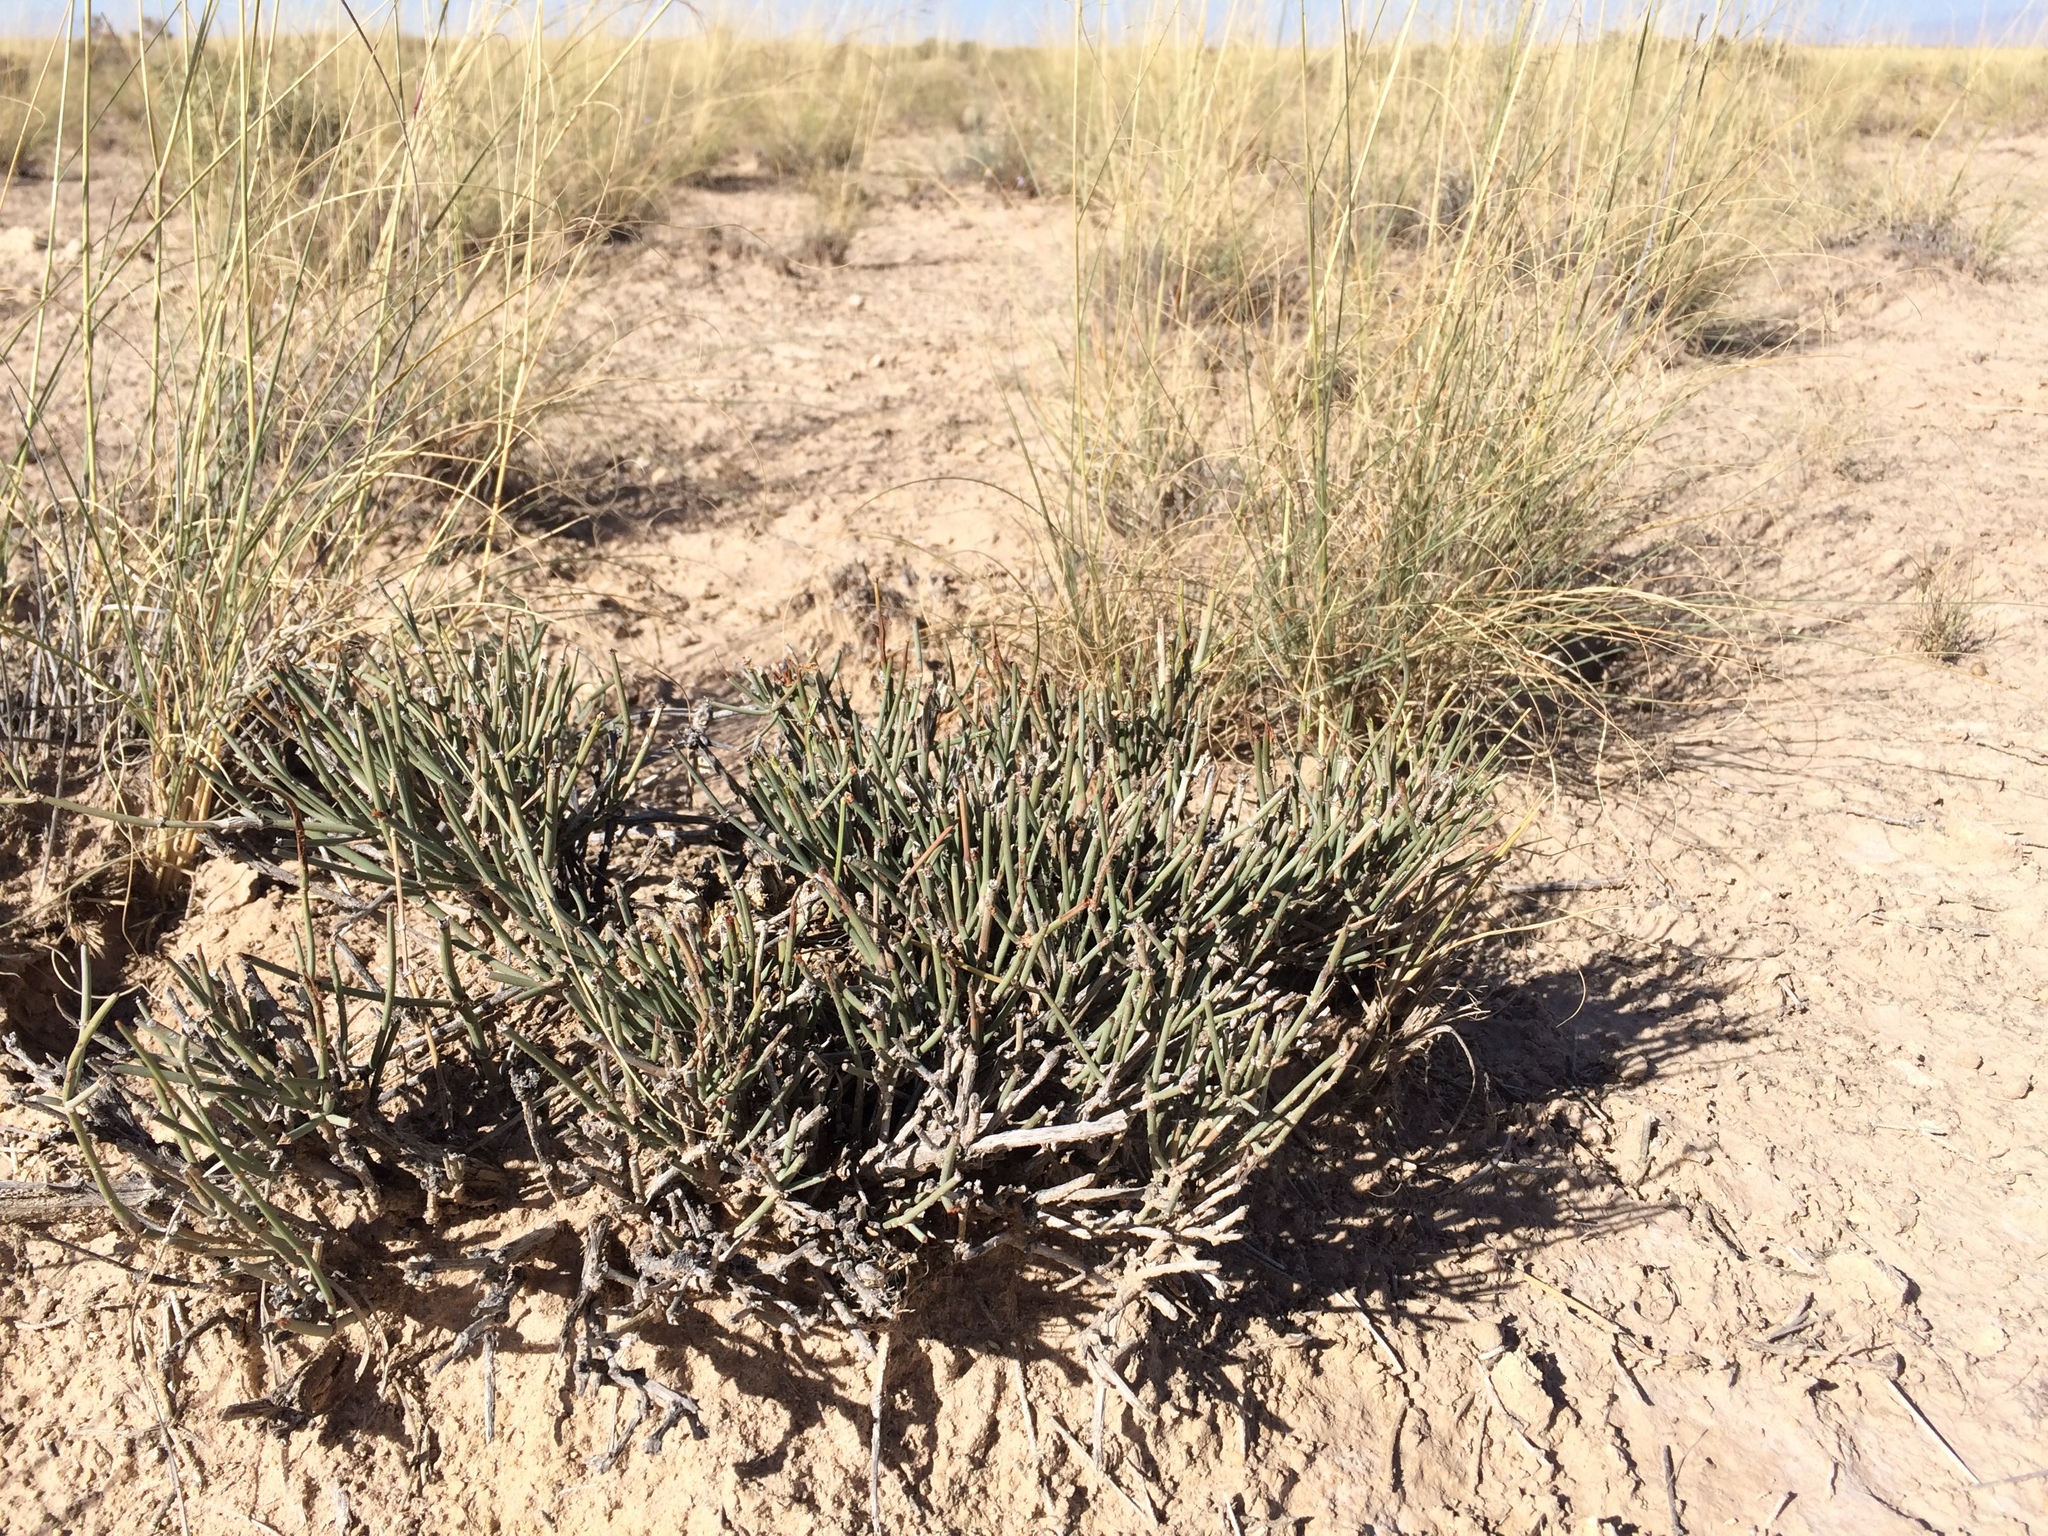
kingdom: Plantae
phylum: Tracheophyta
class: Gnetopsida
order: Ephedrales
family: Ephedraceae
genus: Ephedra
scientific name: Ephedra torreyana
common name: Torrey ephedra
